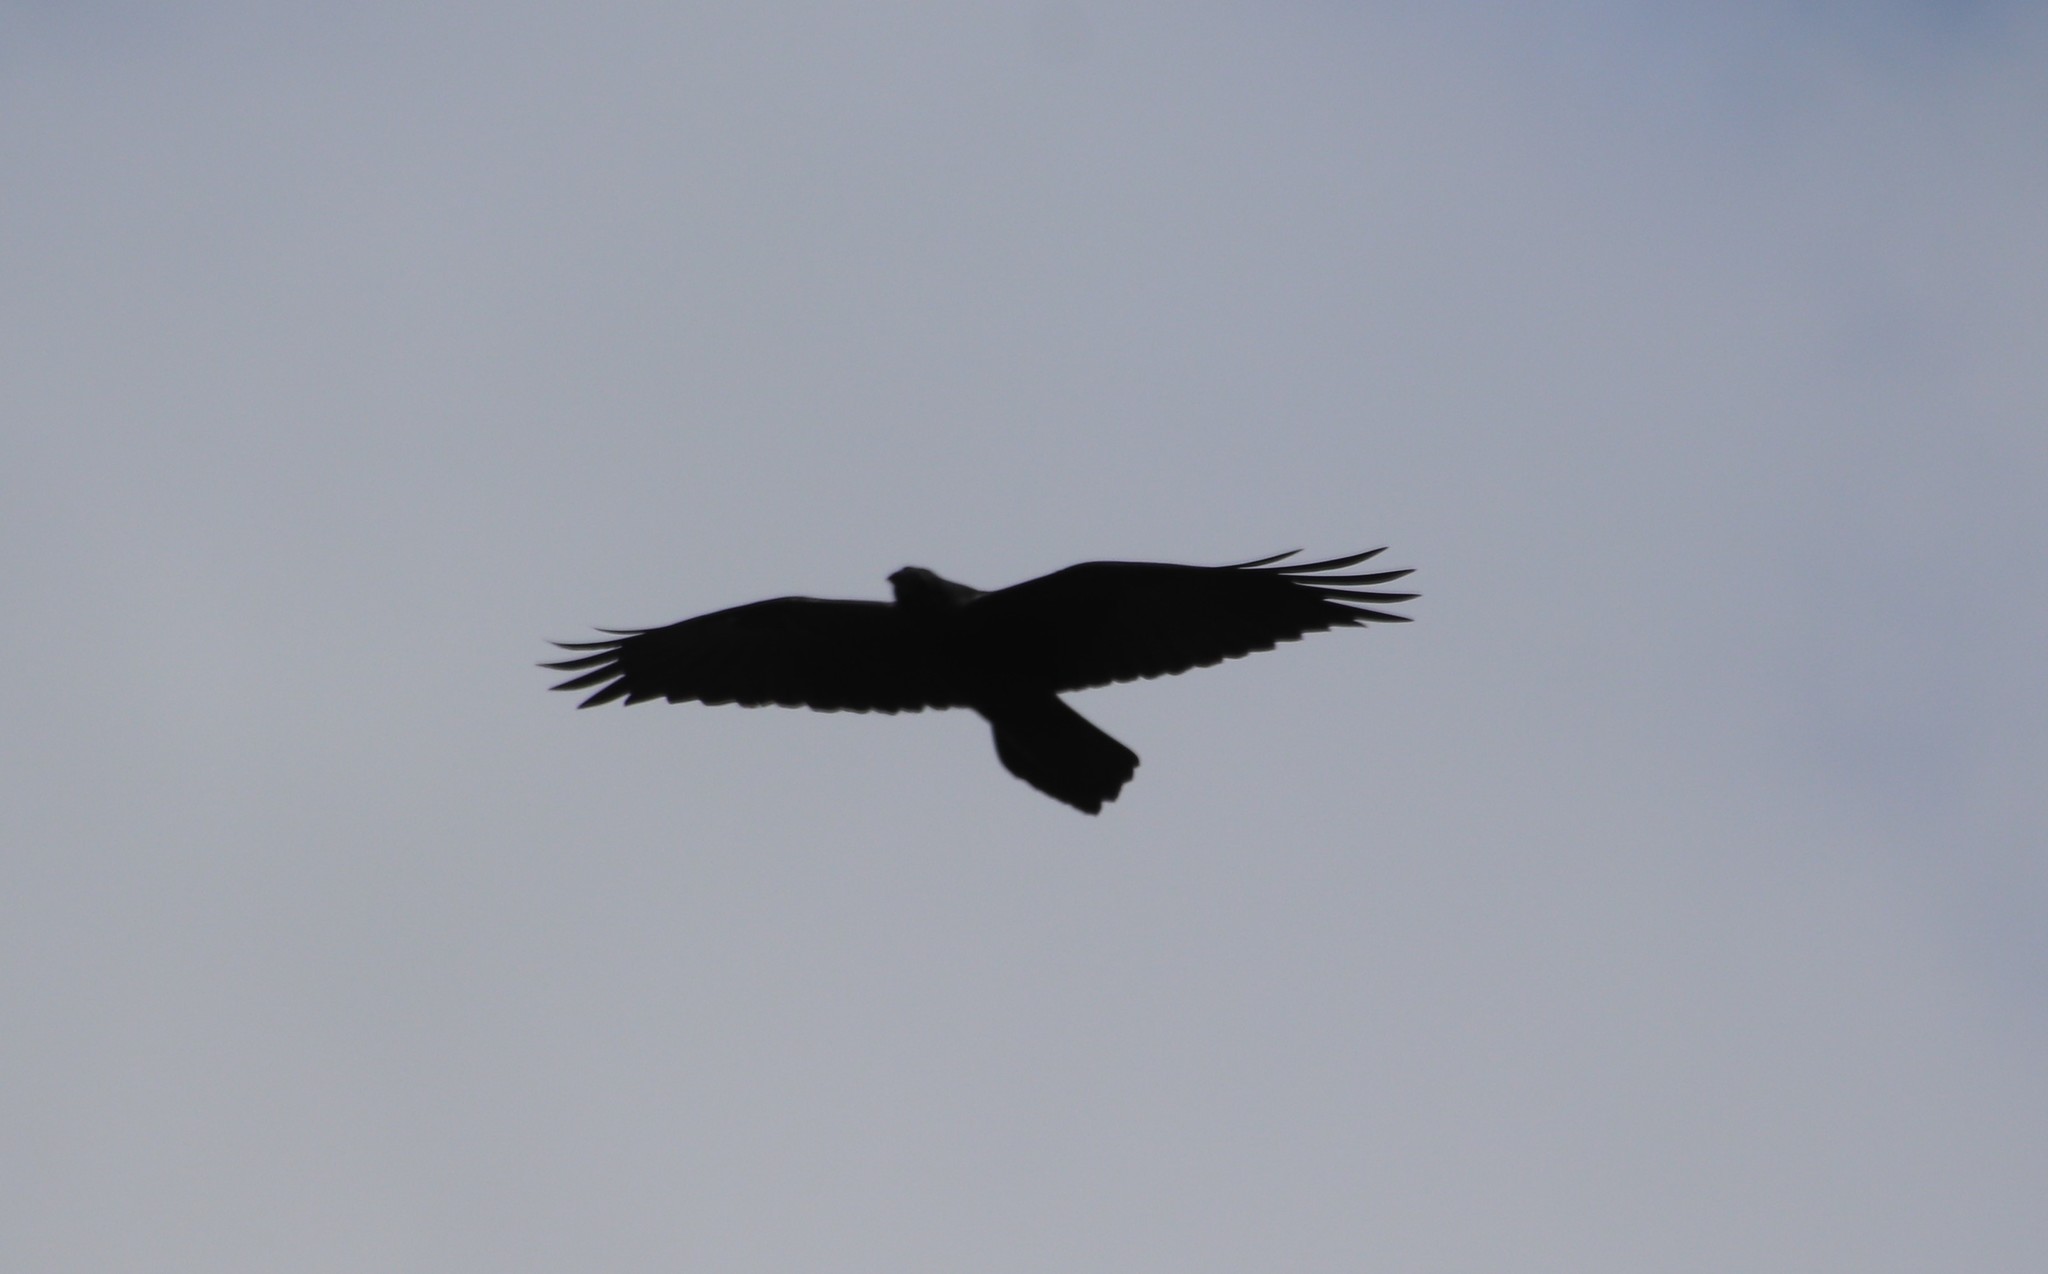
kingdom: Animalia
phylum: Chordata
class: Aves
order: Passeriformes
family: Corvidae
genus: Corvus
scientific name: Corvus corax
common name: Common raven
